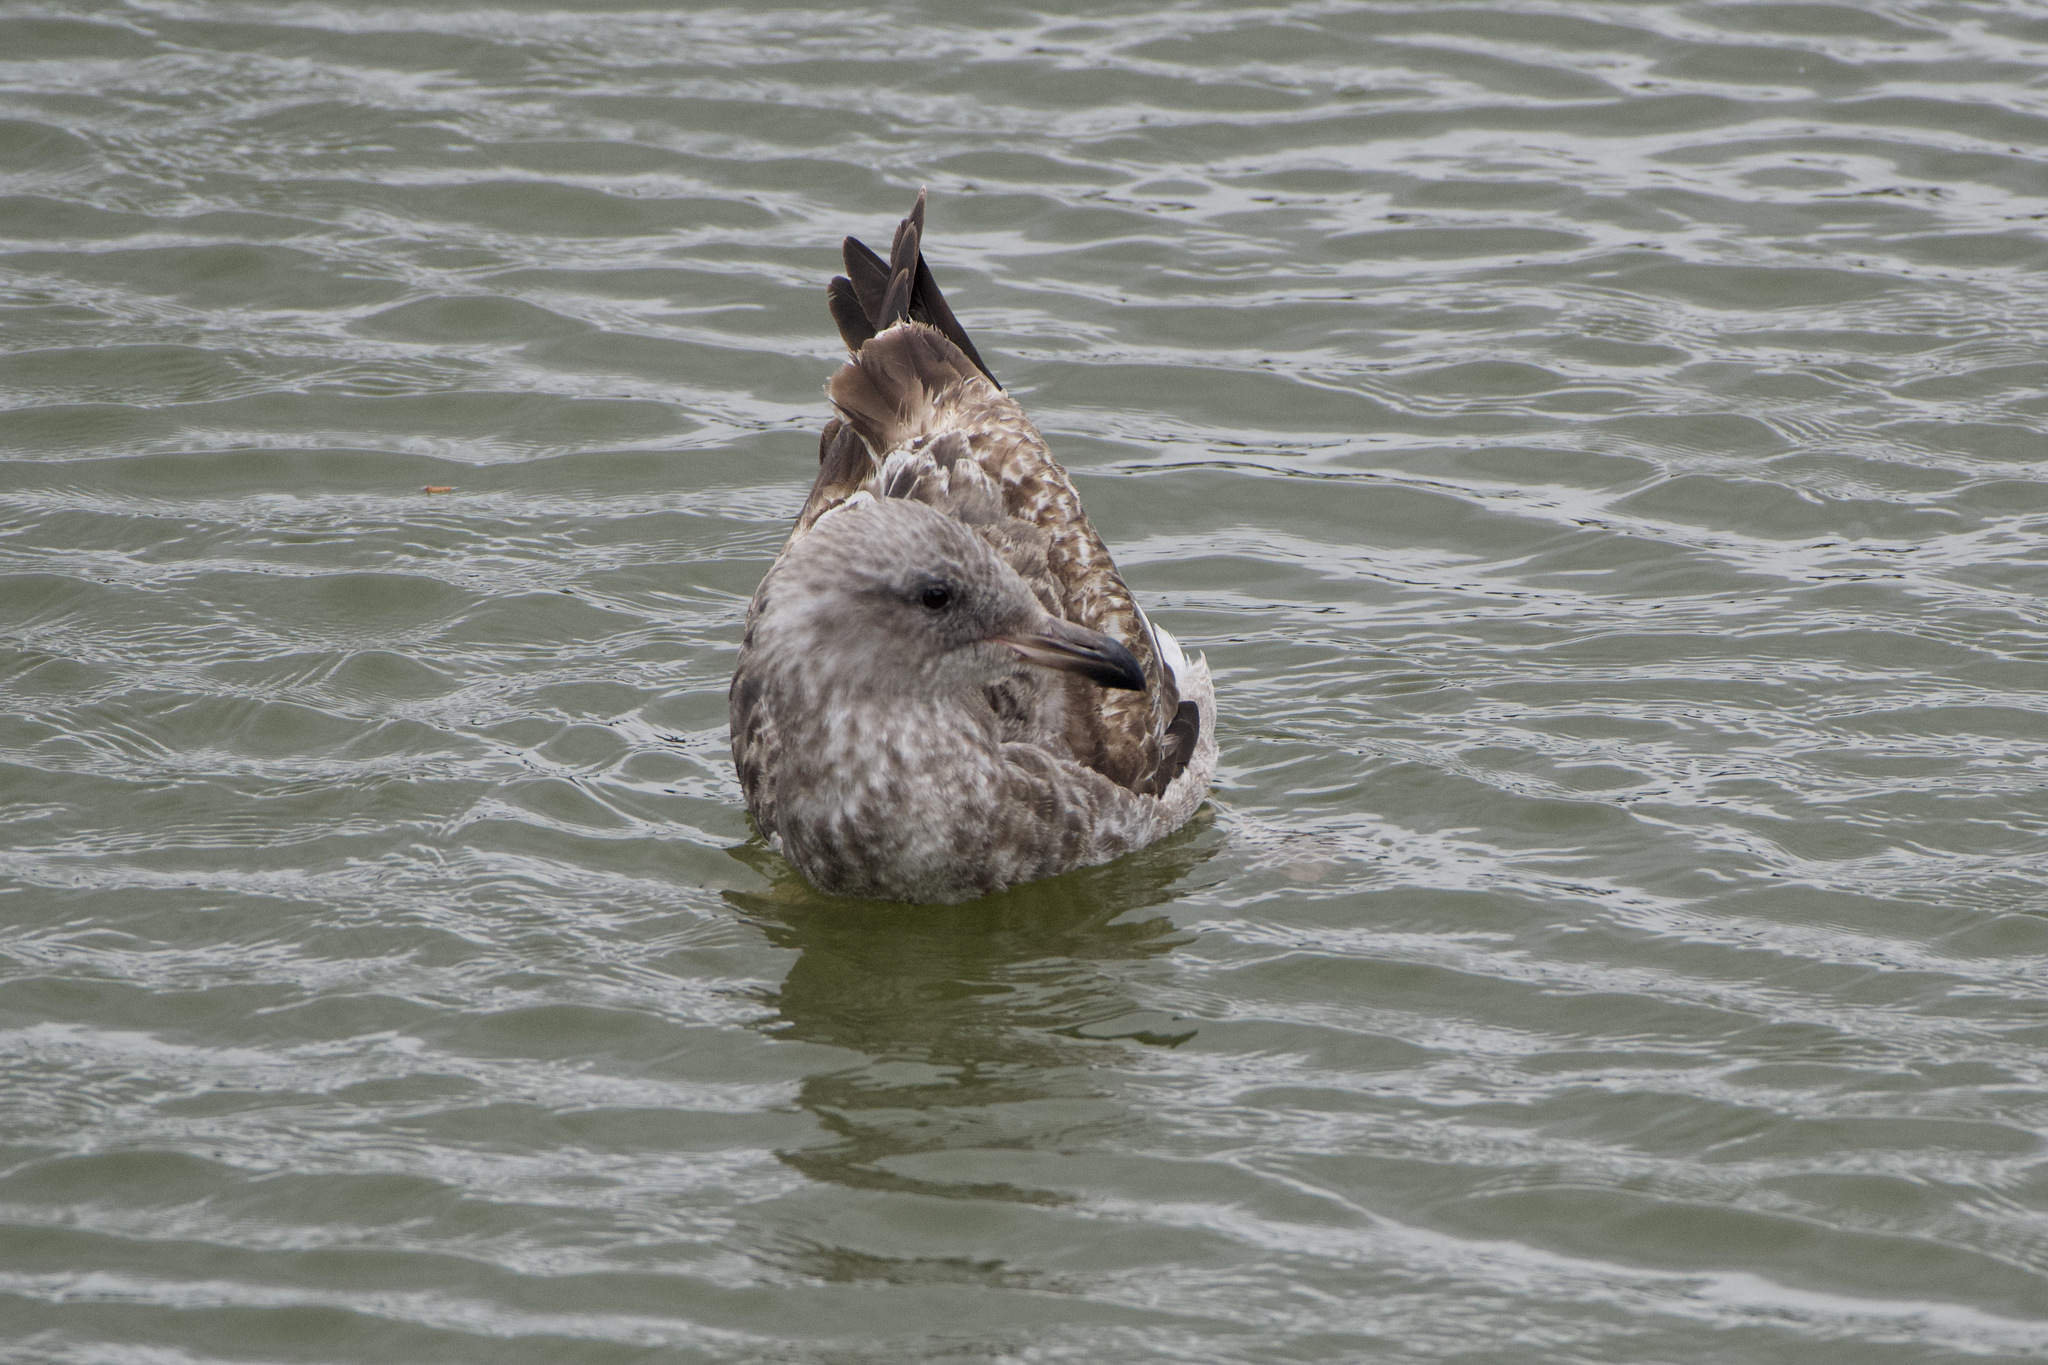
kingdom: Animalia
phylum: Chordata
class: Aves
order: Charadriiformes
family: Laridae
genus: Larus
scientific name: Larus occidentalis
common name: Western gull
